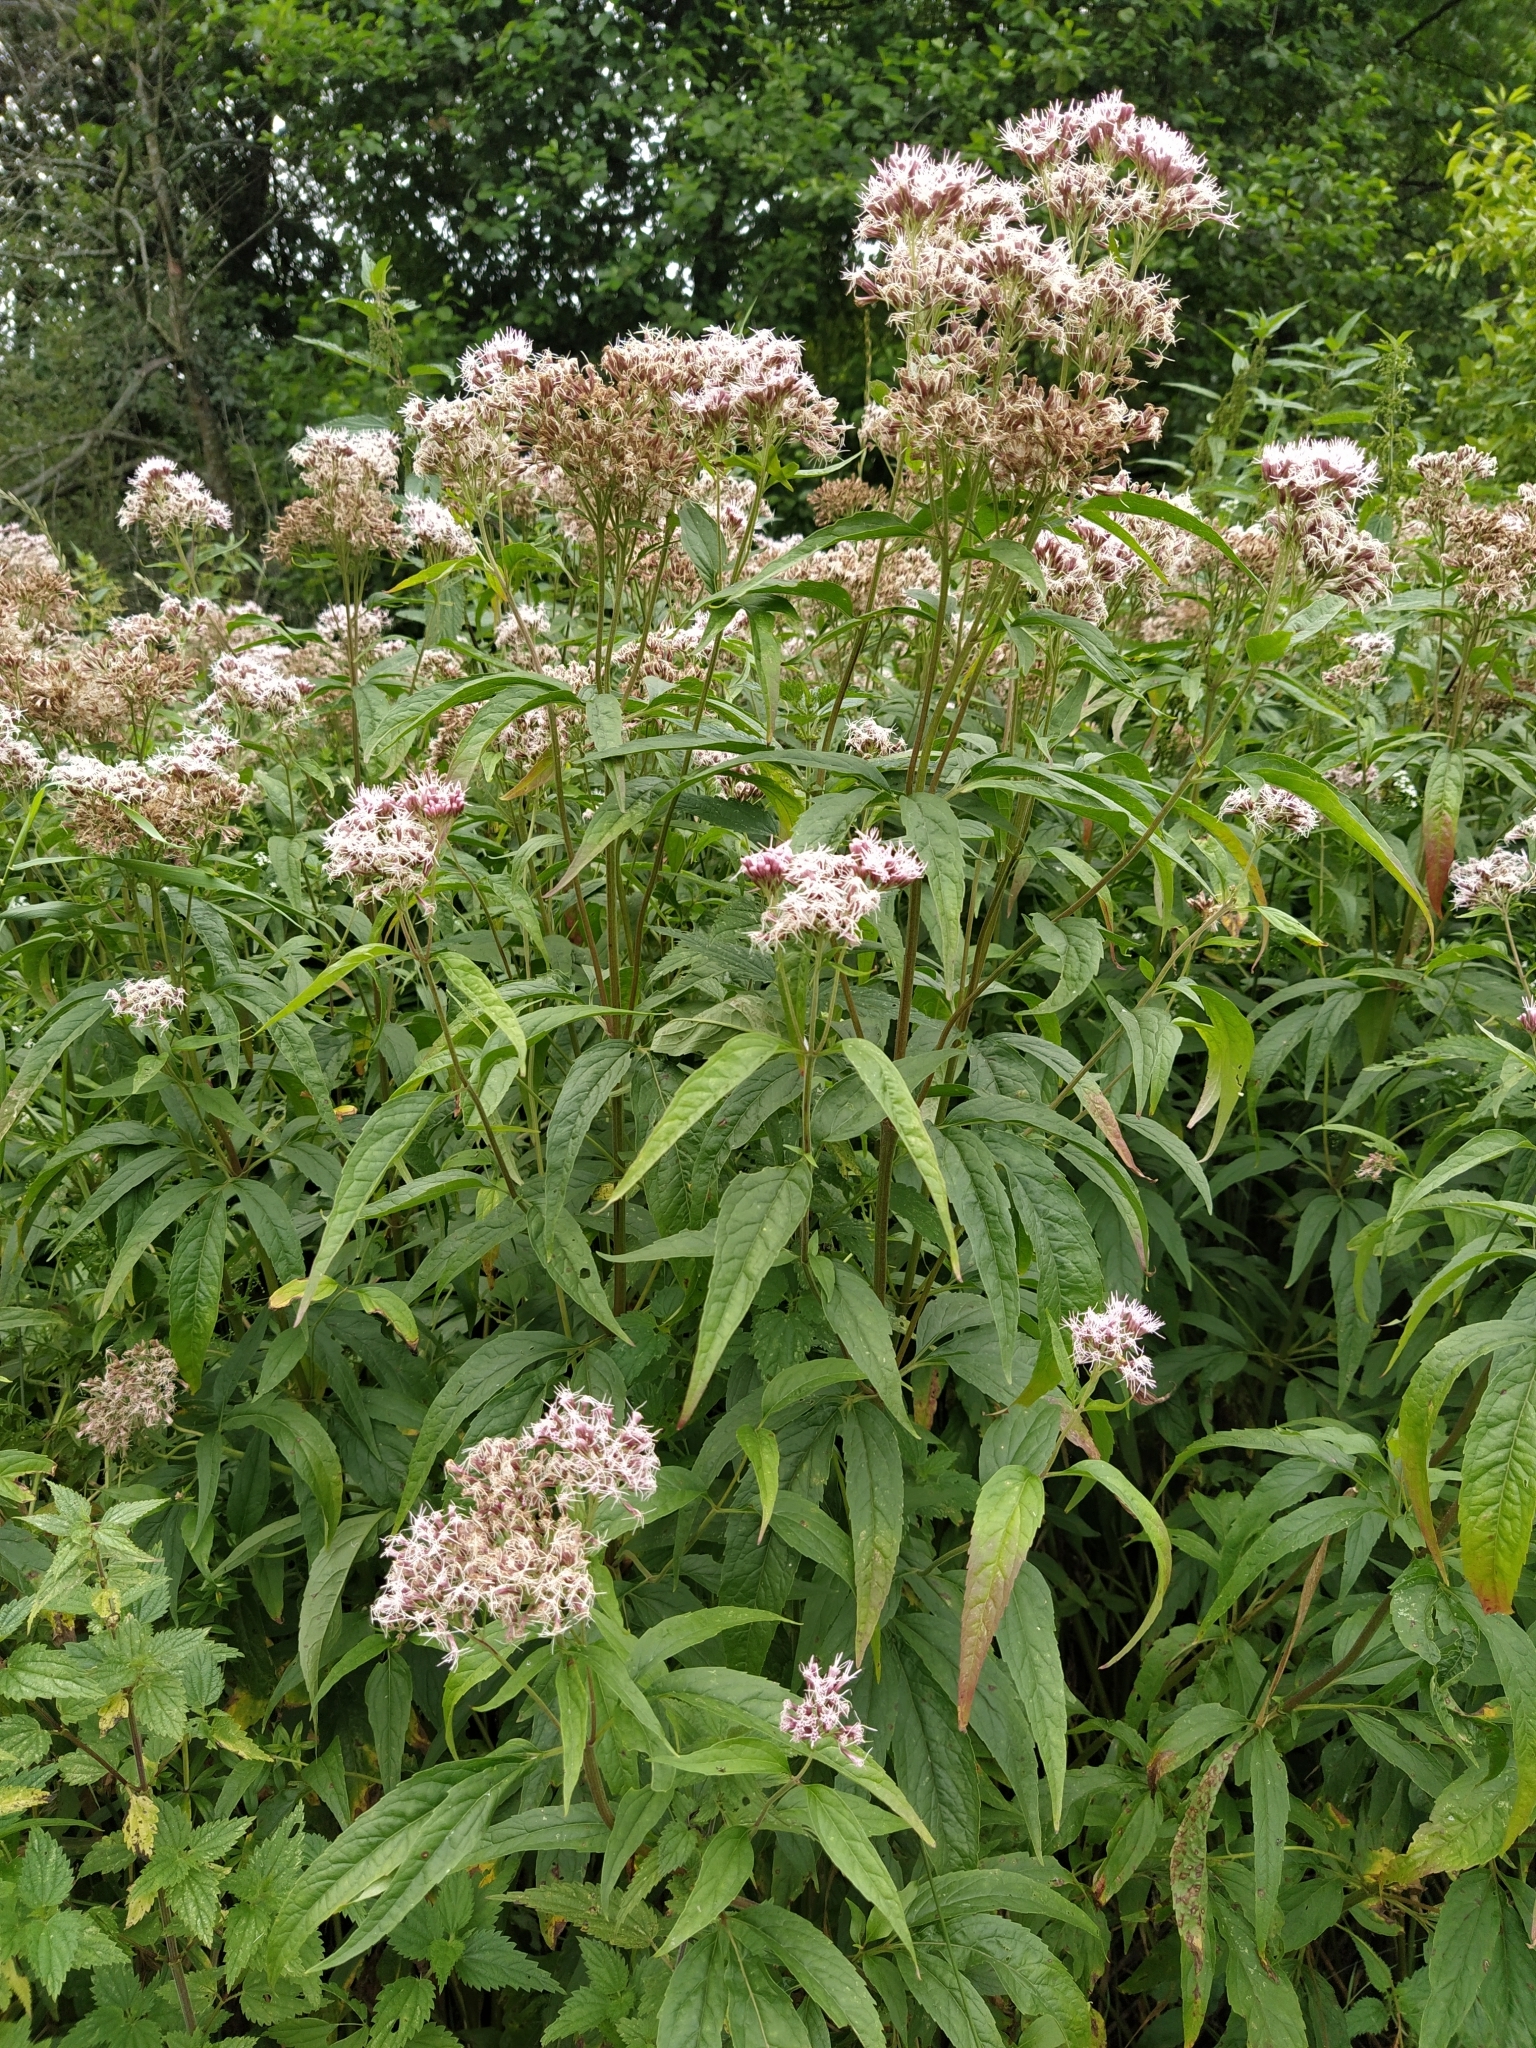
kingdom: Plantae
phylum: Tracheophyta
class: Magnoliopsida
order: Asterales
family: Asteraceae
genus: Eupatorium
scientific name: Eupatorium cannabinum
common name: Hemp-agrimony
